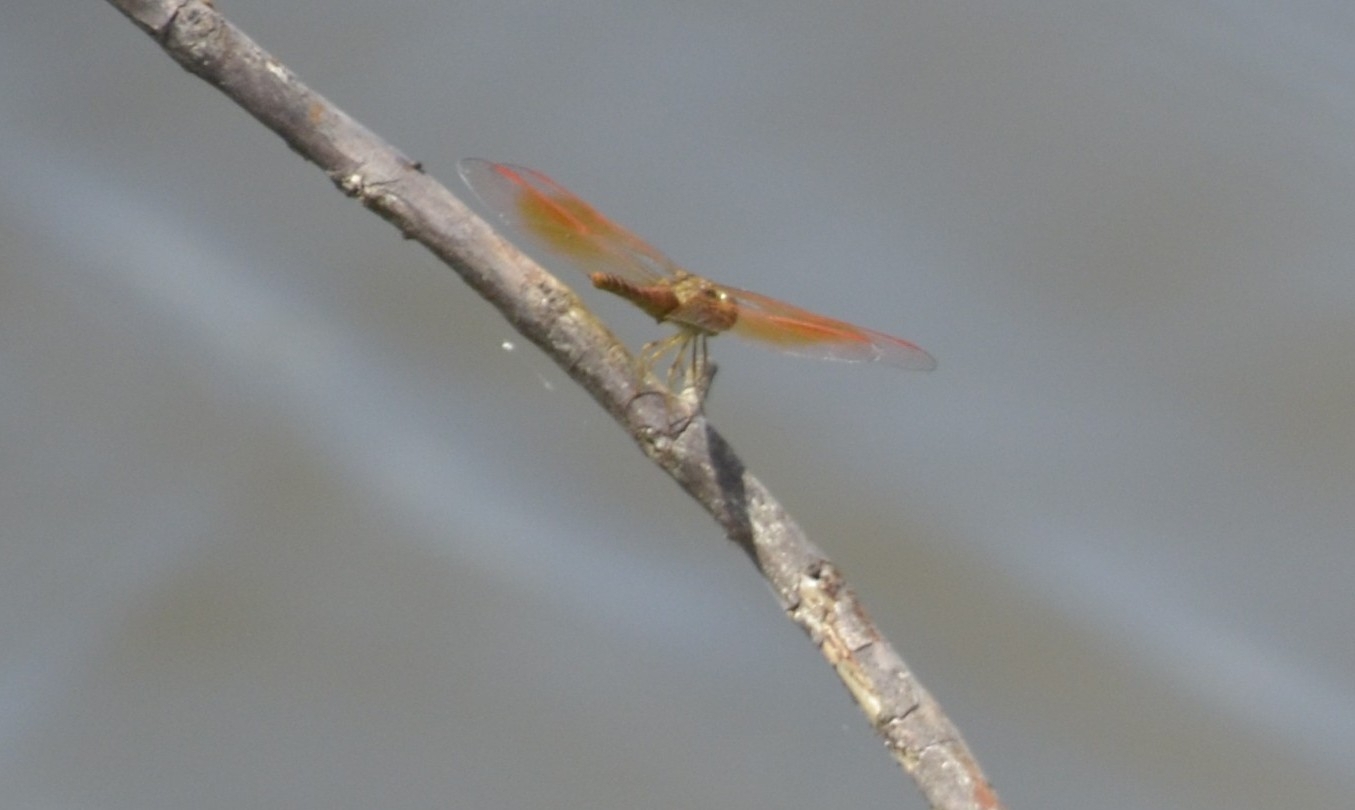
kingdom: Animalia
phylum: Arthropoda
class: Insecta
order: Odonata
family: Libellulidae
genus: Brachythemis
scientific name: Brachythemis contaminata
